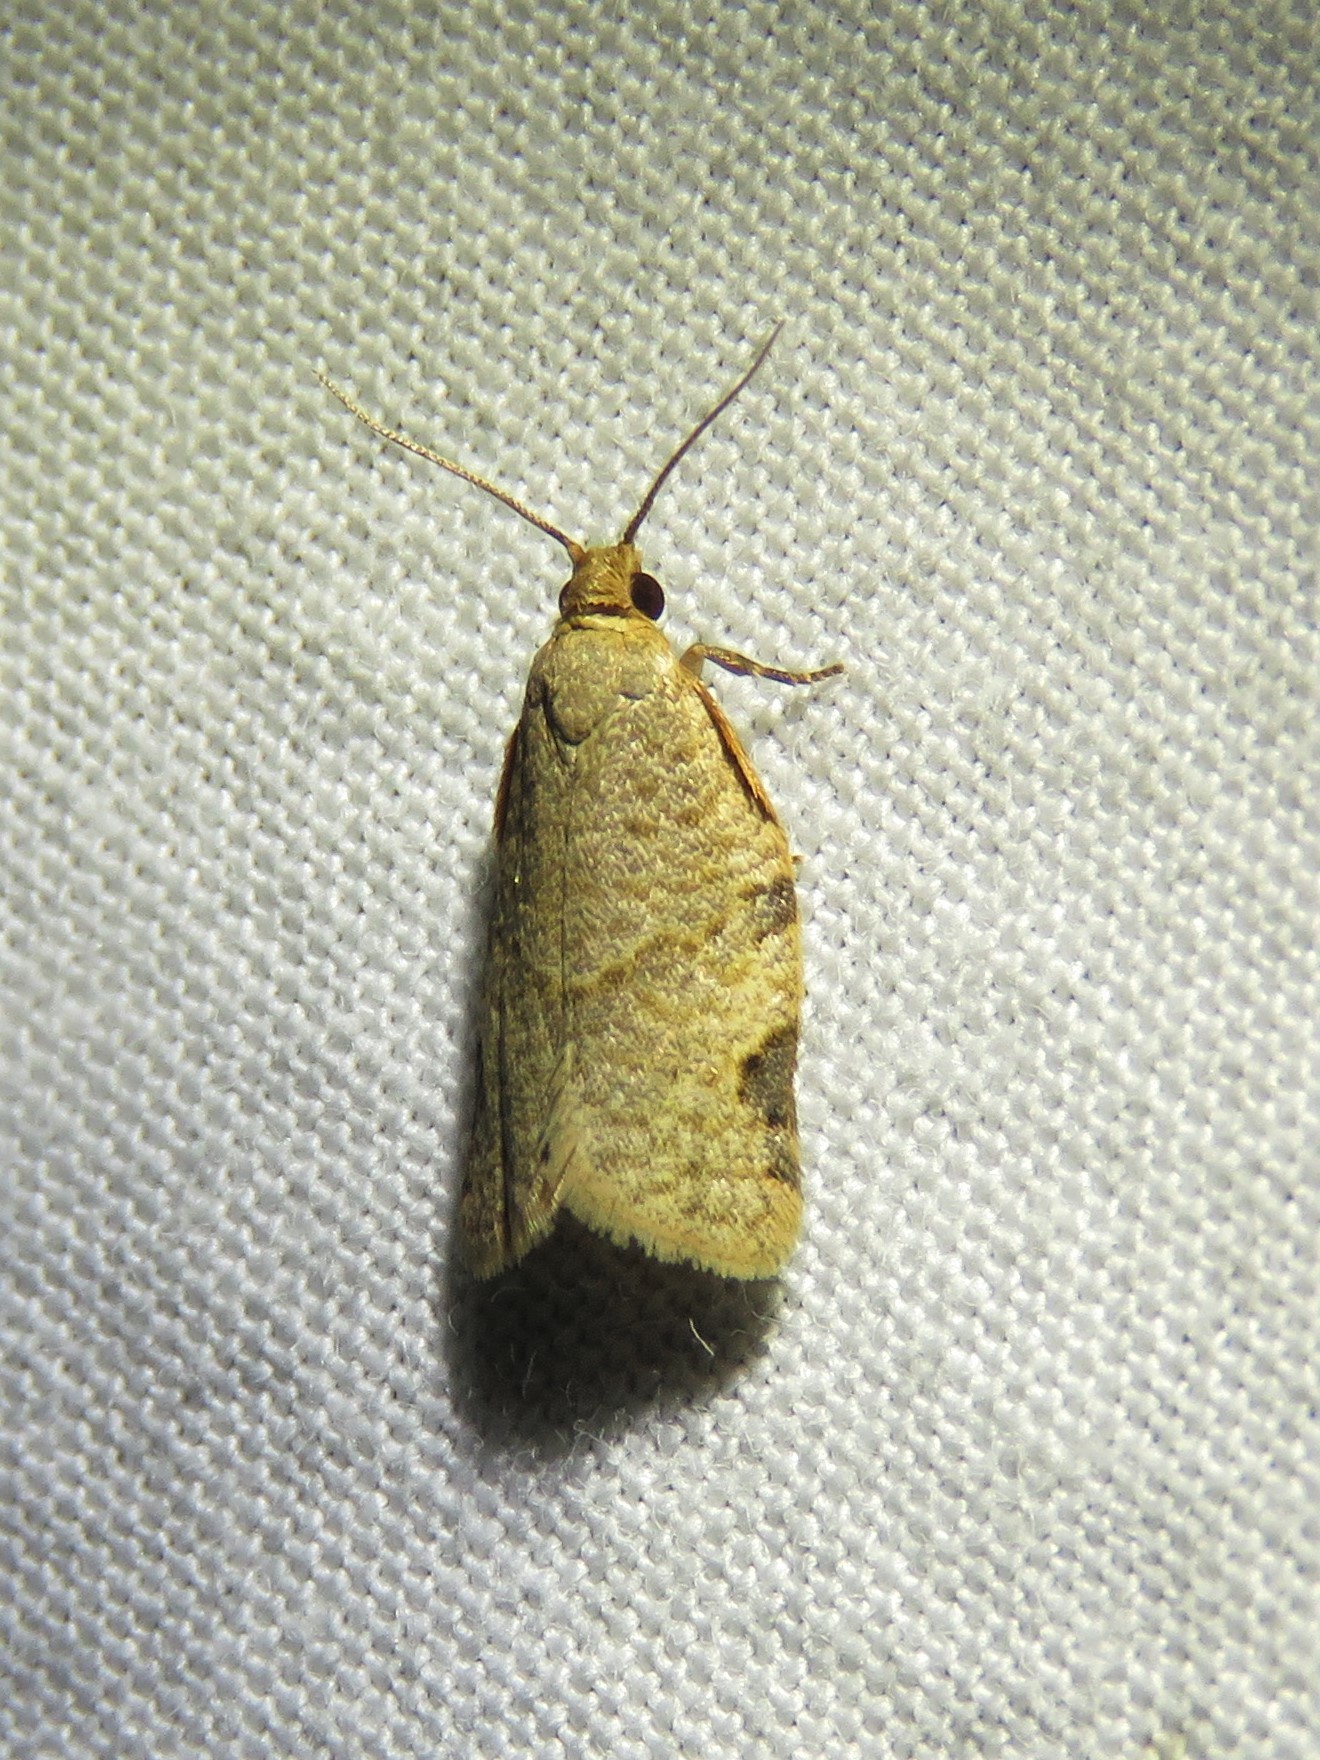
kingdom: Animalia
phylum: Arthropoda
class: Insecta
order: Lepidoptera
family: Tortricidae
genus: Clepsis
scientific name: Clepsis virescana
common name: Greenish apple moth
